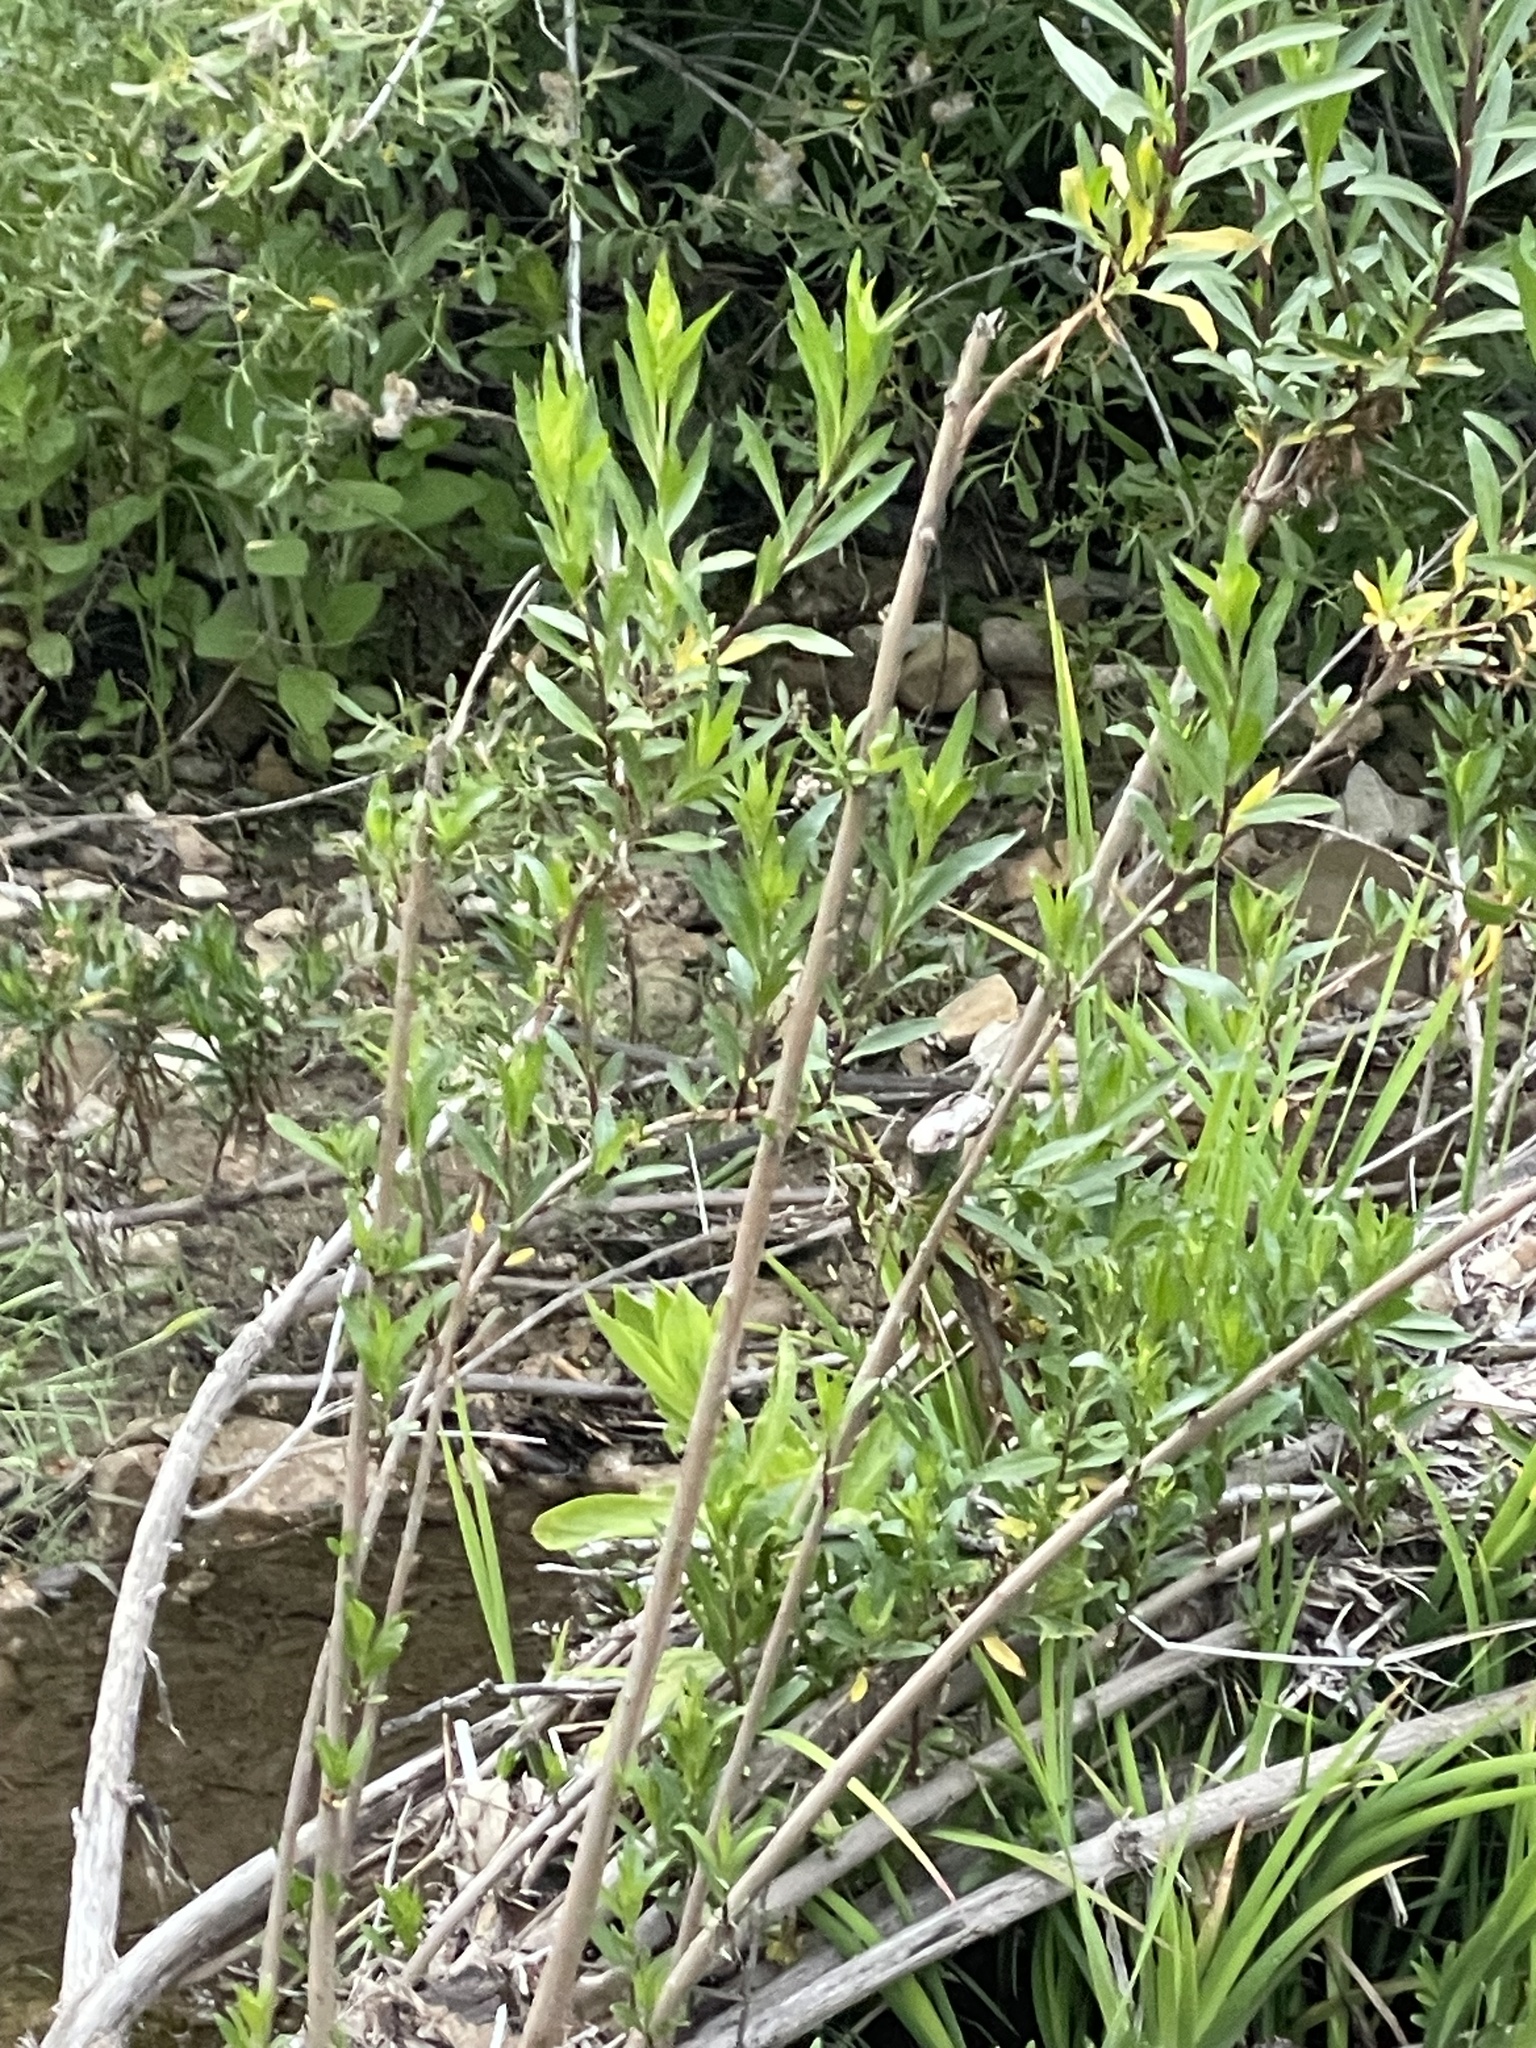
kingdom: Plantae
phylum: Tracheophyta
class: Magnoliopsida
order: Asterales
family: Asteraceae
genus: Baccharis
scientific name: Baccharis salicifolia
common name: Sticky baccharis
